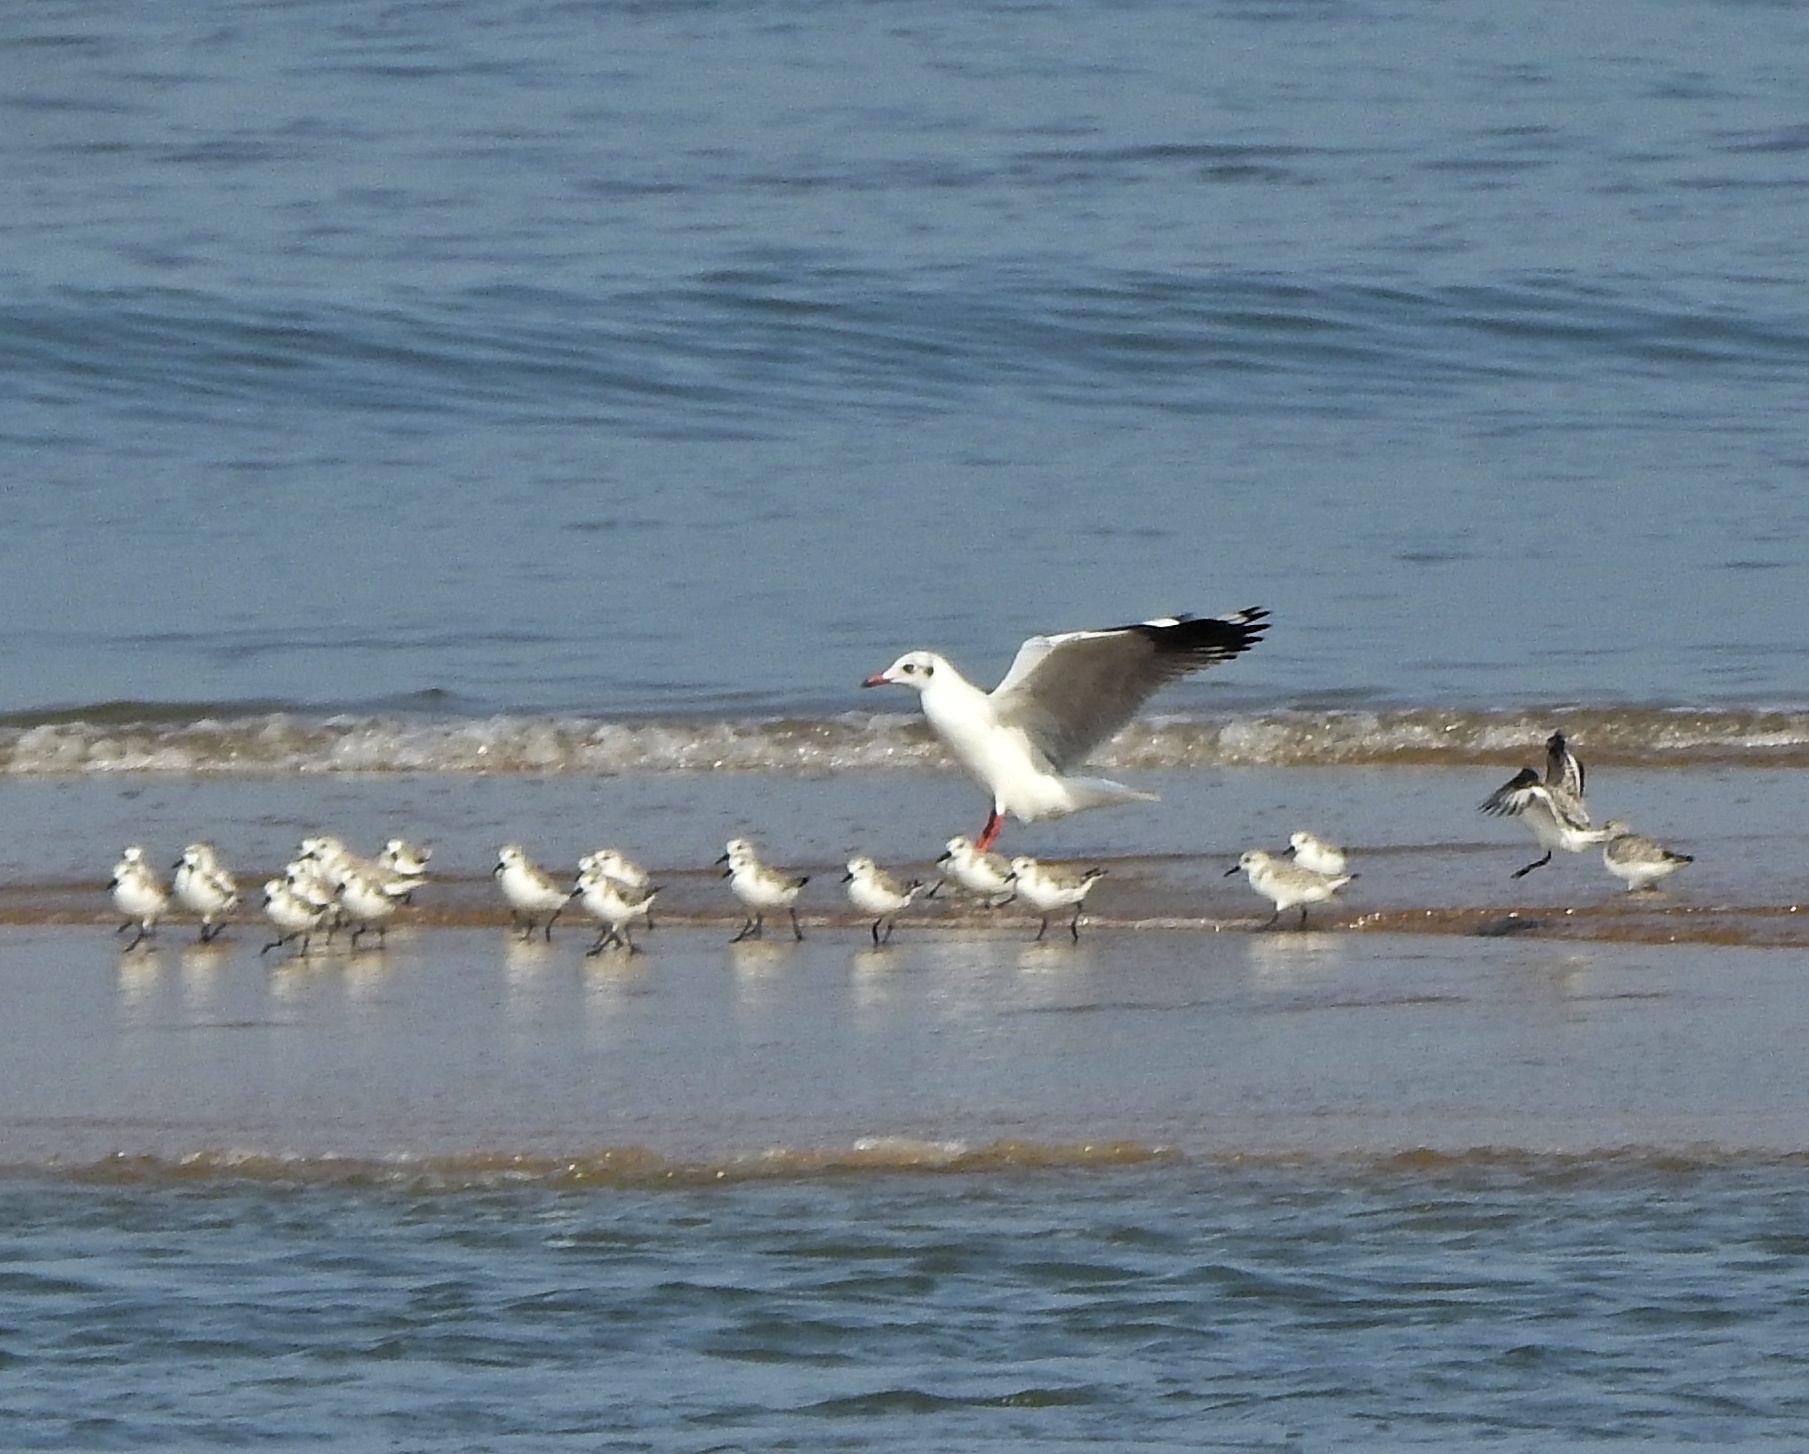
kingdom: Animalia
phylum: Chordata
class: Aves
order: Charadriiformes
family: Laridae
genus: Chroicocephalus
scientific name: Chroicocephalus brunnicephalus
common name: Brown-headed gull
